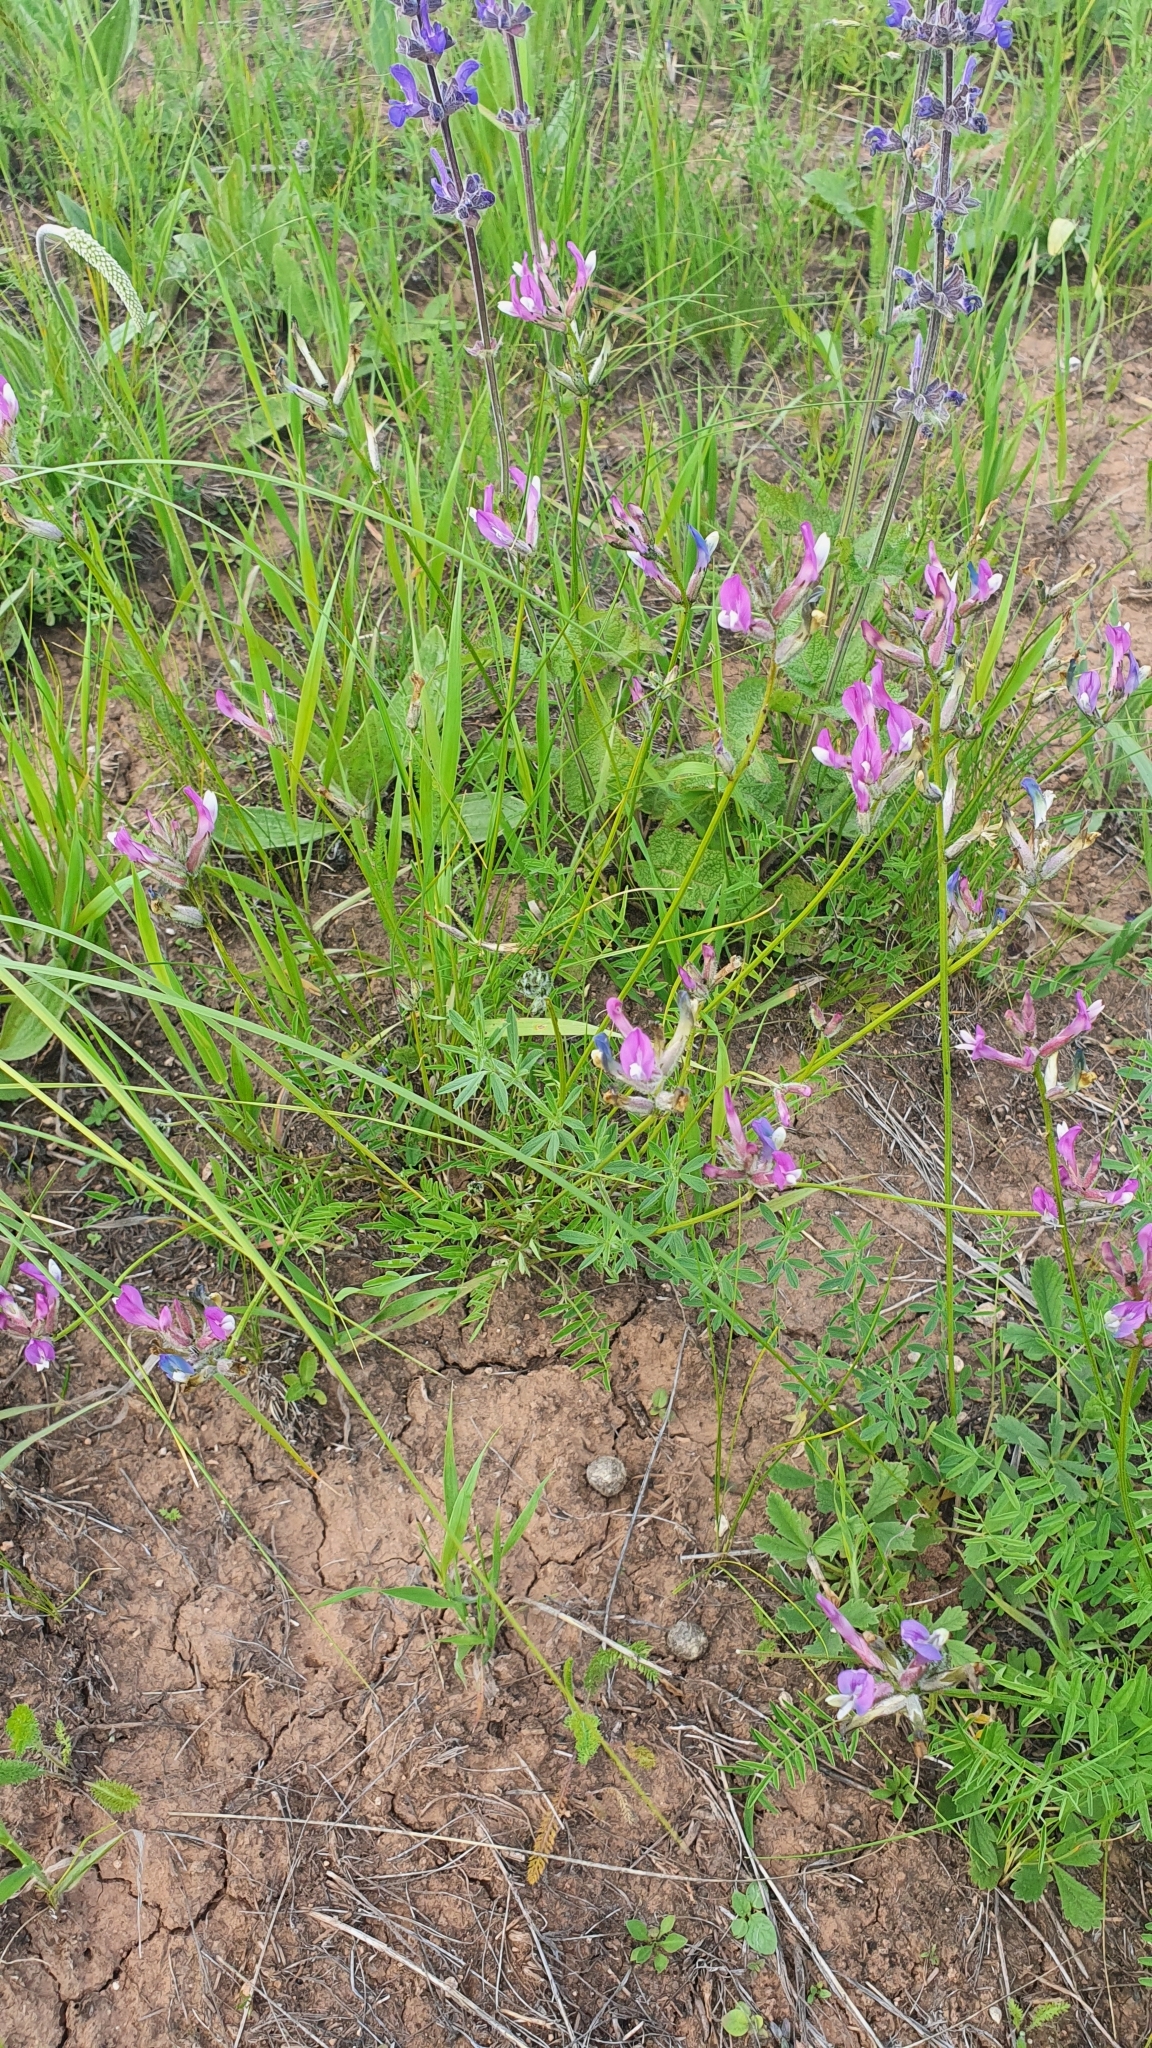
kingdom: Plantae
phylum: Tracheophyta
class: Magnoliopsida
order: Fabales
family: Fabaceae
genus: Astragalus
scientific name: Astragalus macropus
